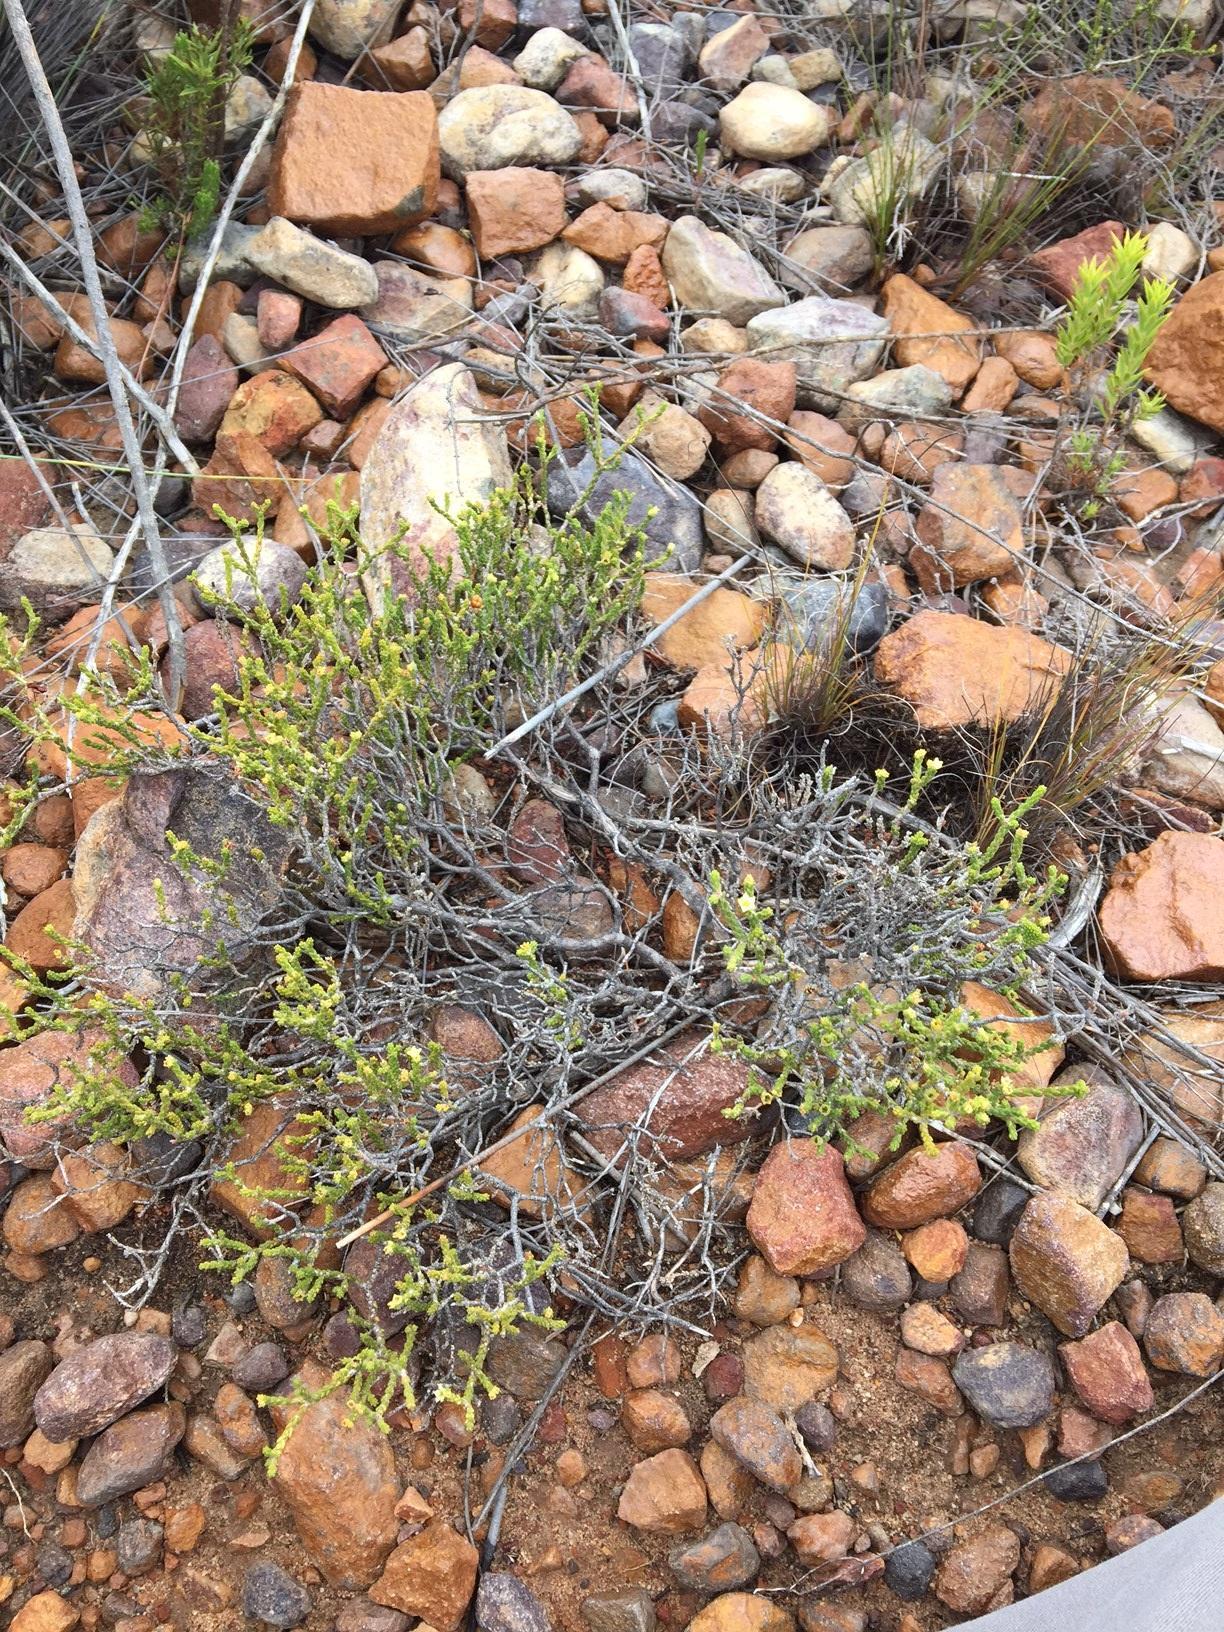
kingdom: Plantae
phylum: Tracheophyta
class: Magnoliopsida
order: Sapindales
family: Rutaceae
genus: Diosma
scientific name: Diosma apetala
